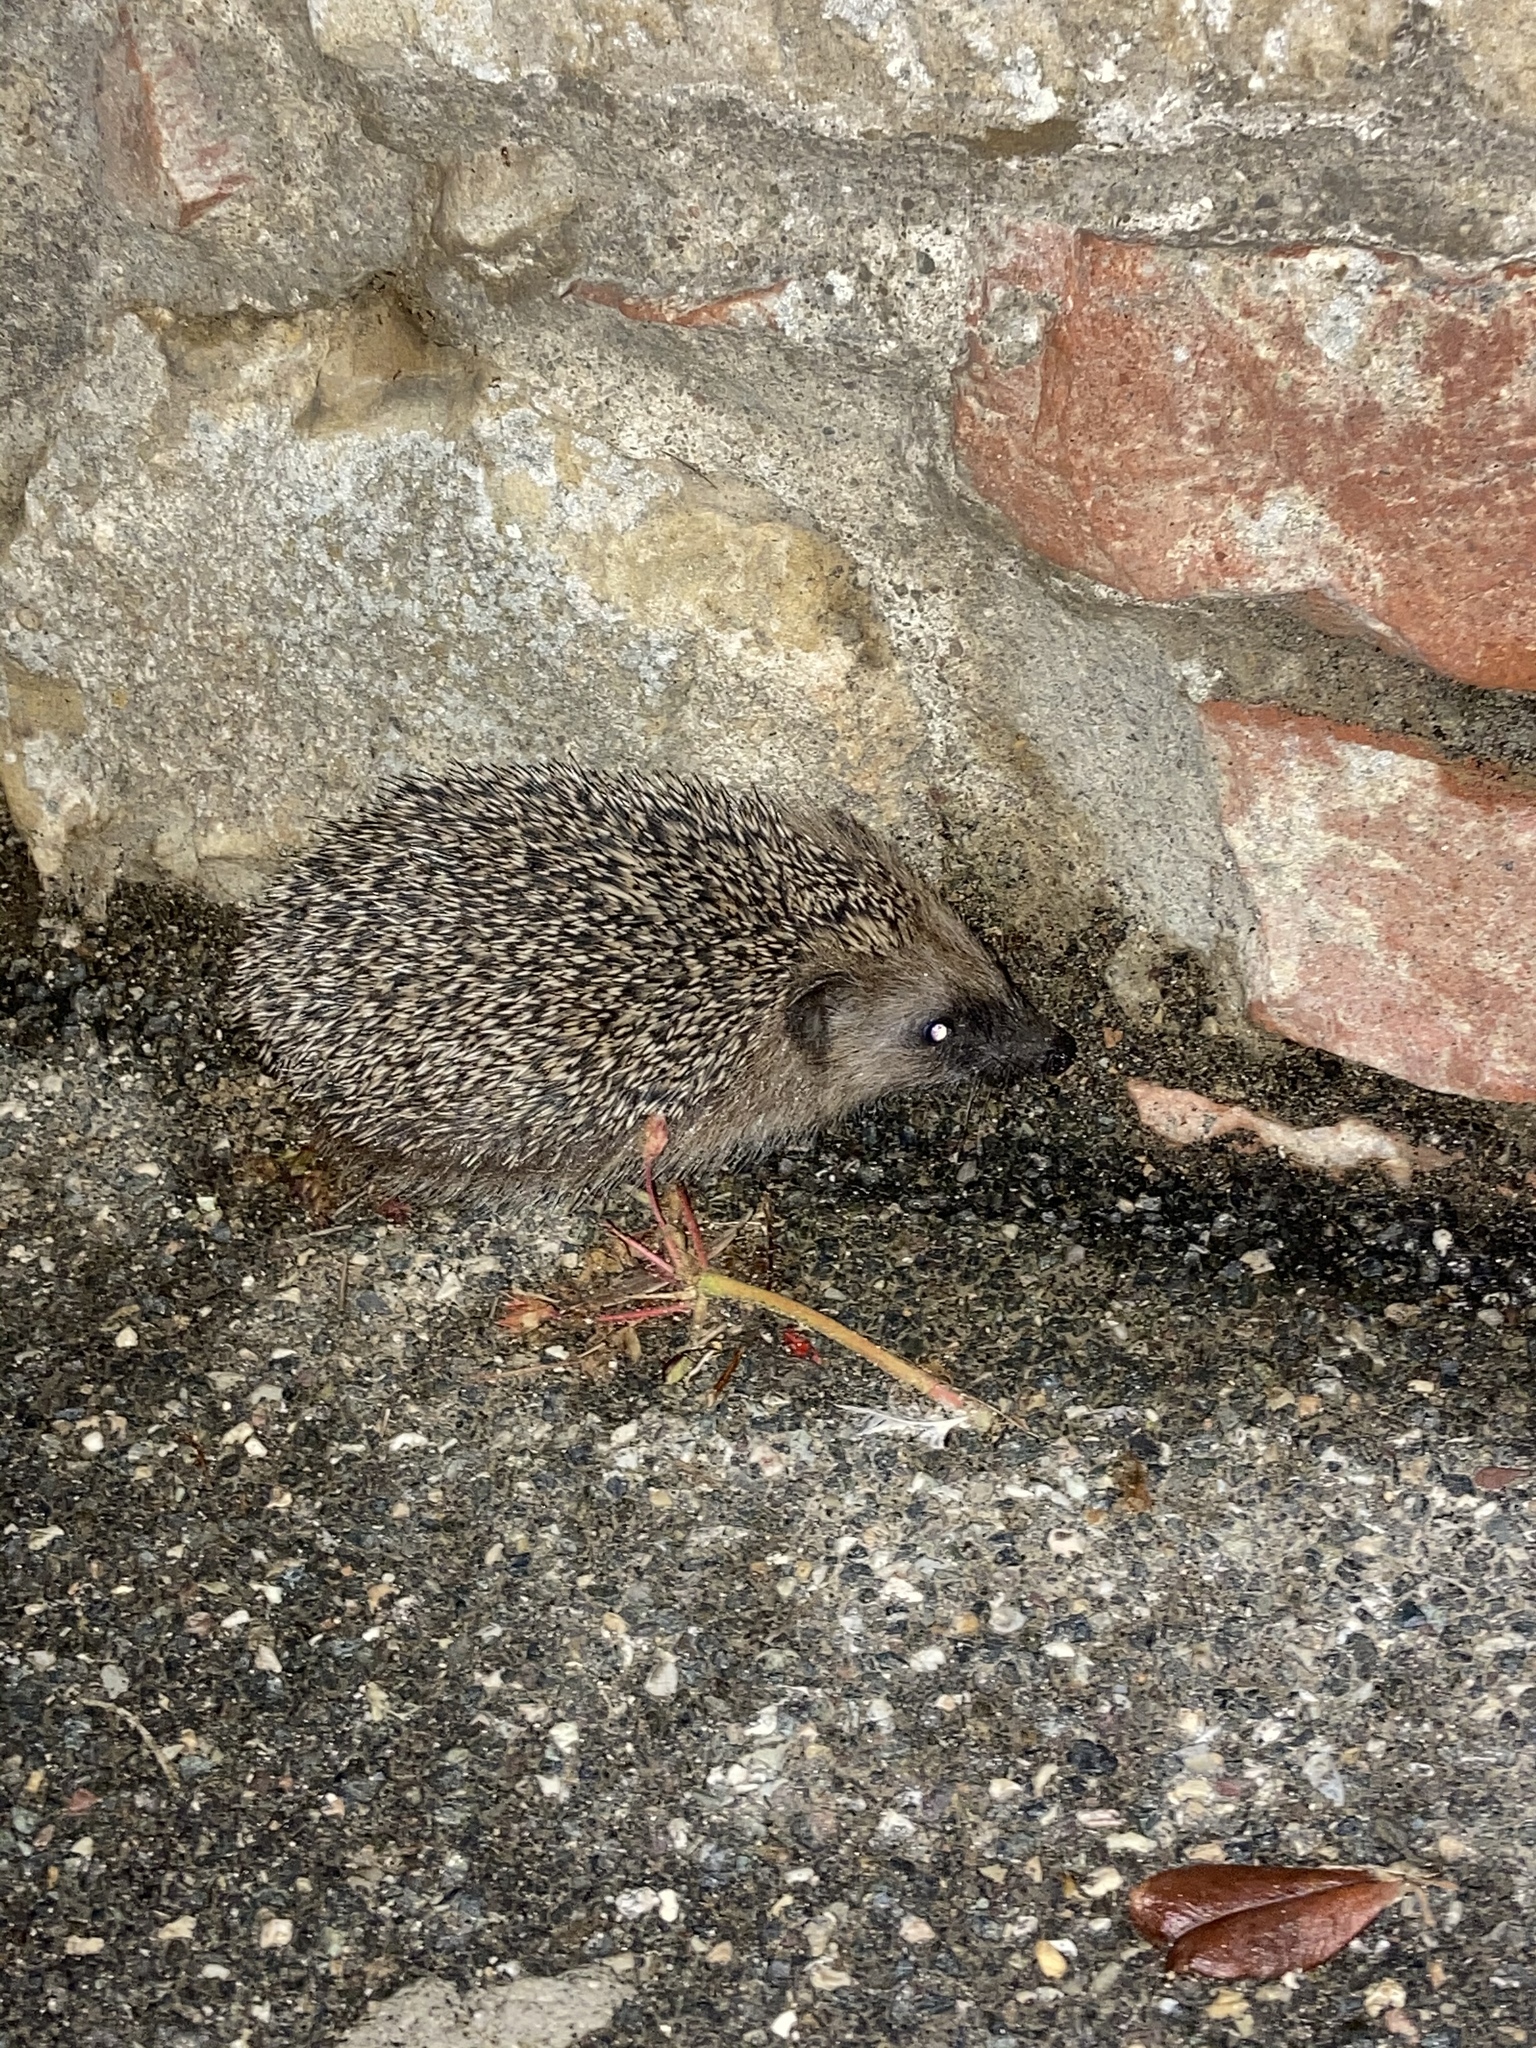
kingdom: Animalia
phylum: Chordata
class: Mammalia
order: Erinaceomorpha
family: Erinaceidae
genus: Erinaceus
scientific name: Erinaceus europaeus
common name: West european hedgehog
